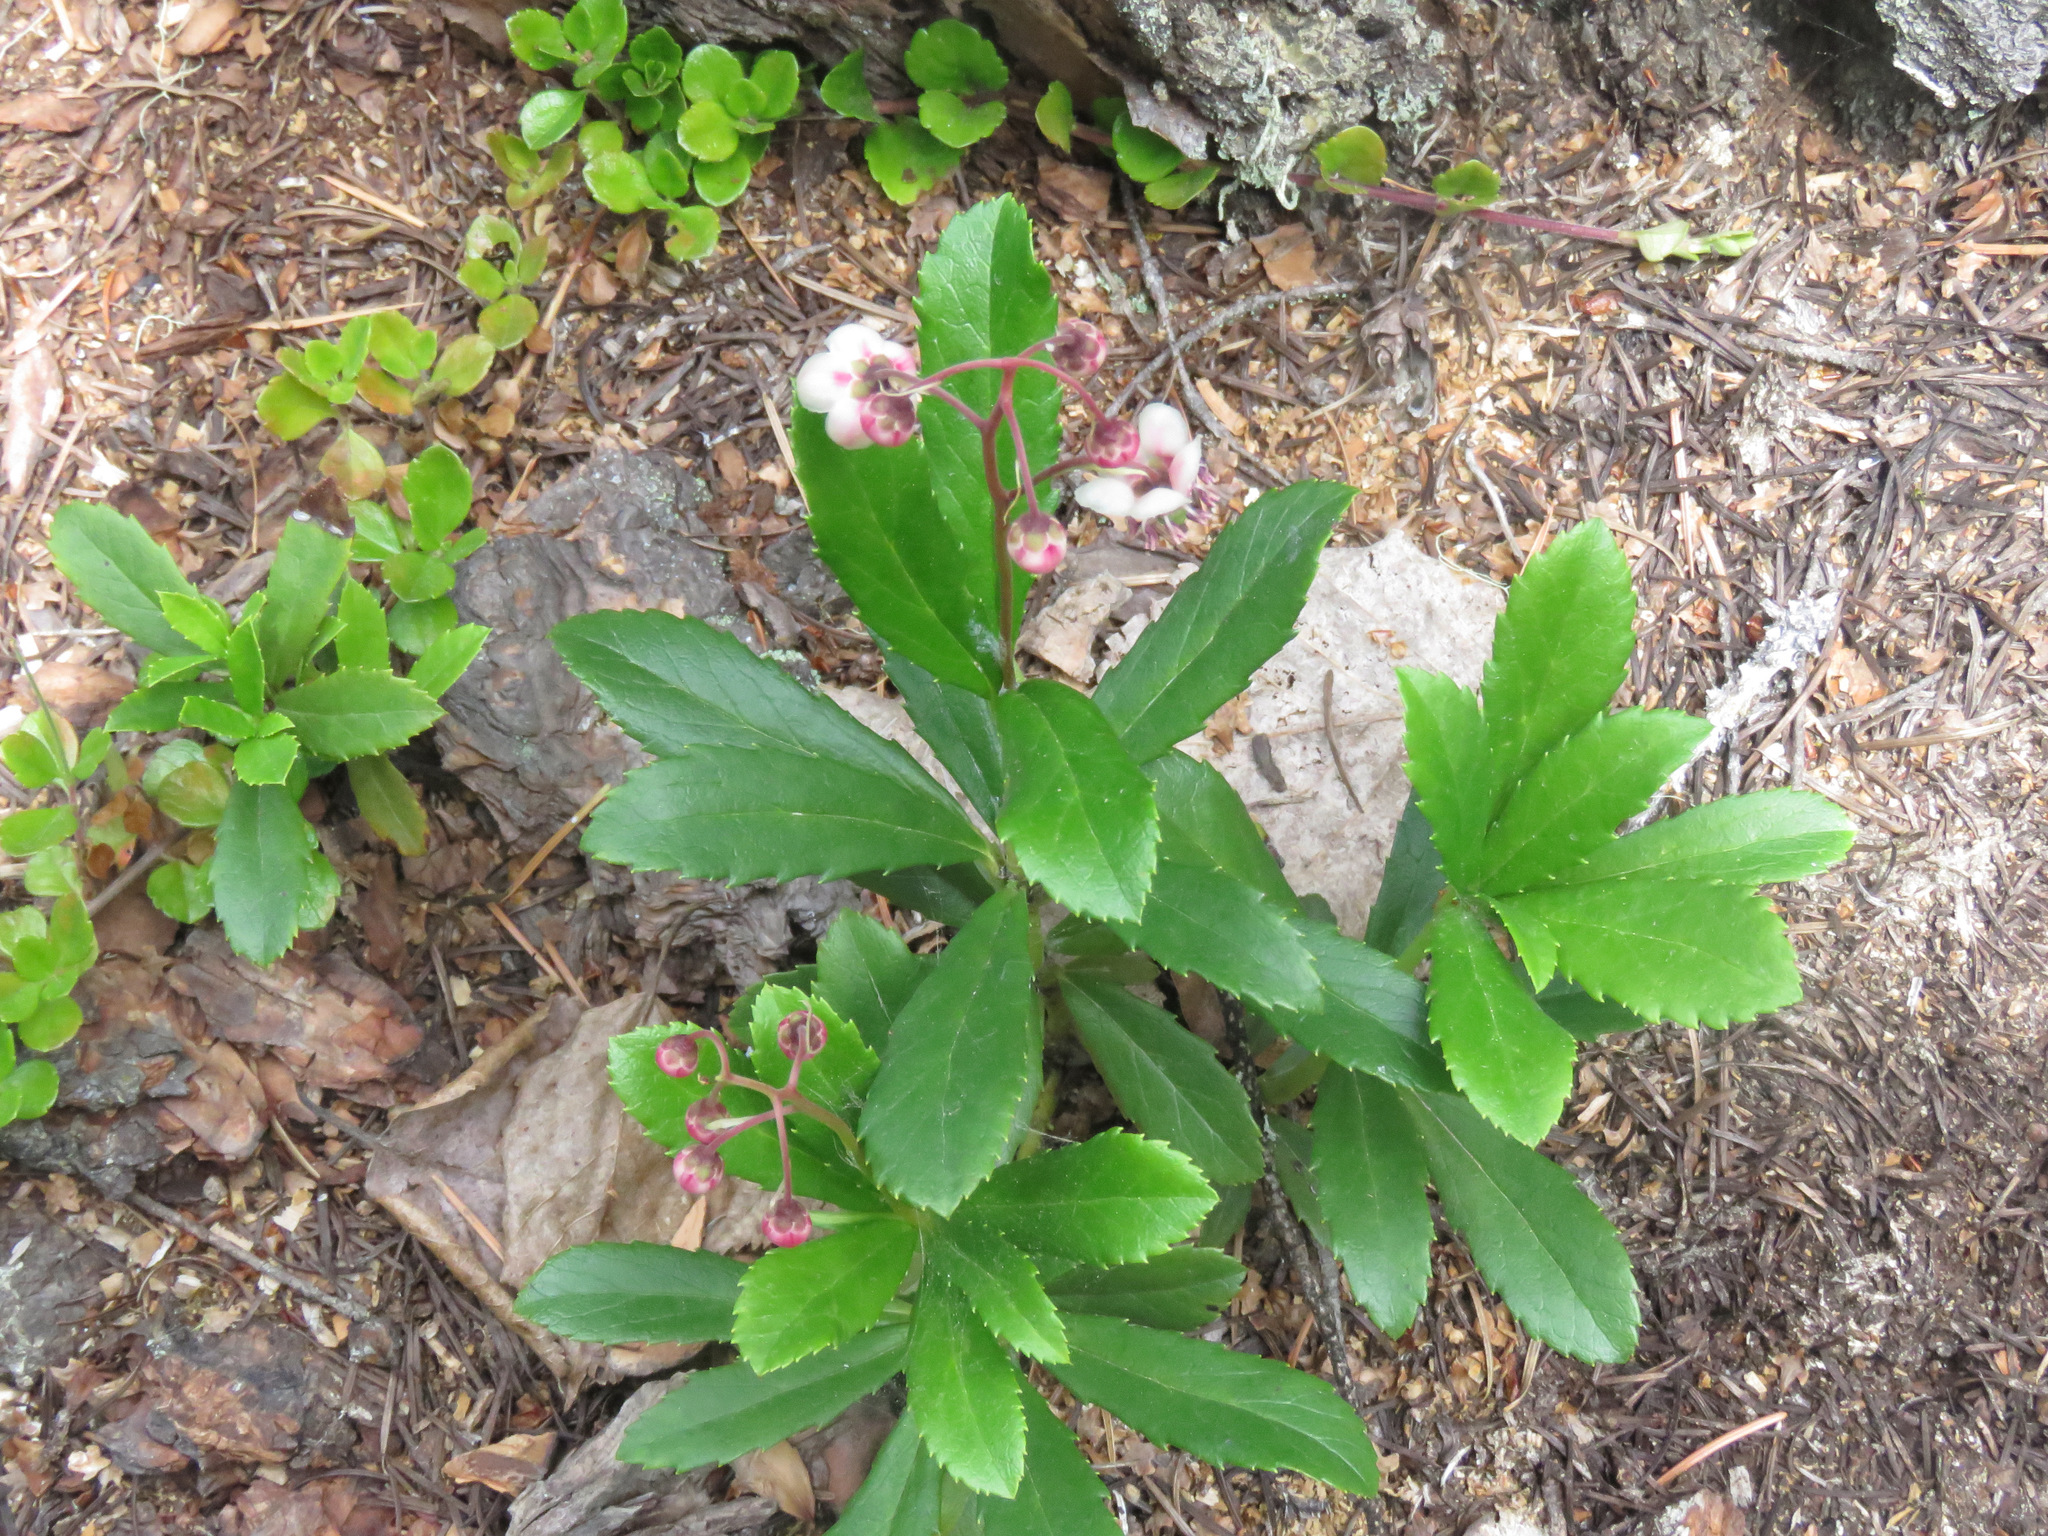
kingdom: Plantae
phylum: Tracheophyta
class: Magnoliopsida
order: Ericales
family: Ericaceae
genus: Chimaphila
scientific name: Chimaphila umbellata
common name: Pipsissewa
